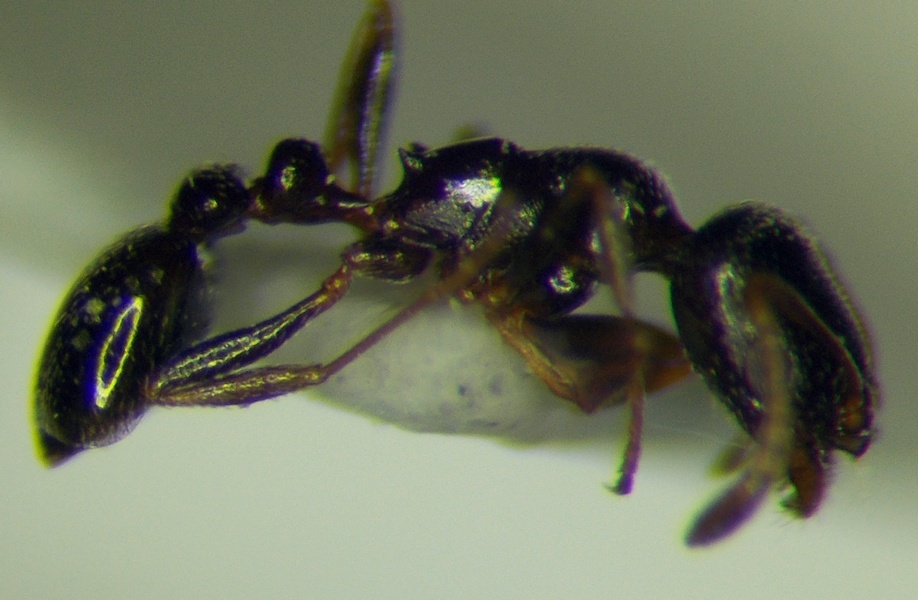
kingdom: Animalia
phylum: Arthropoda
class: Insecta
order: Hymenoptera
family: Formicidae
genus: Cardiocondyla
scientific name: Cardiocondyla sahlbergi
